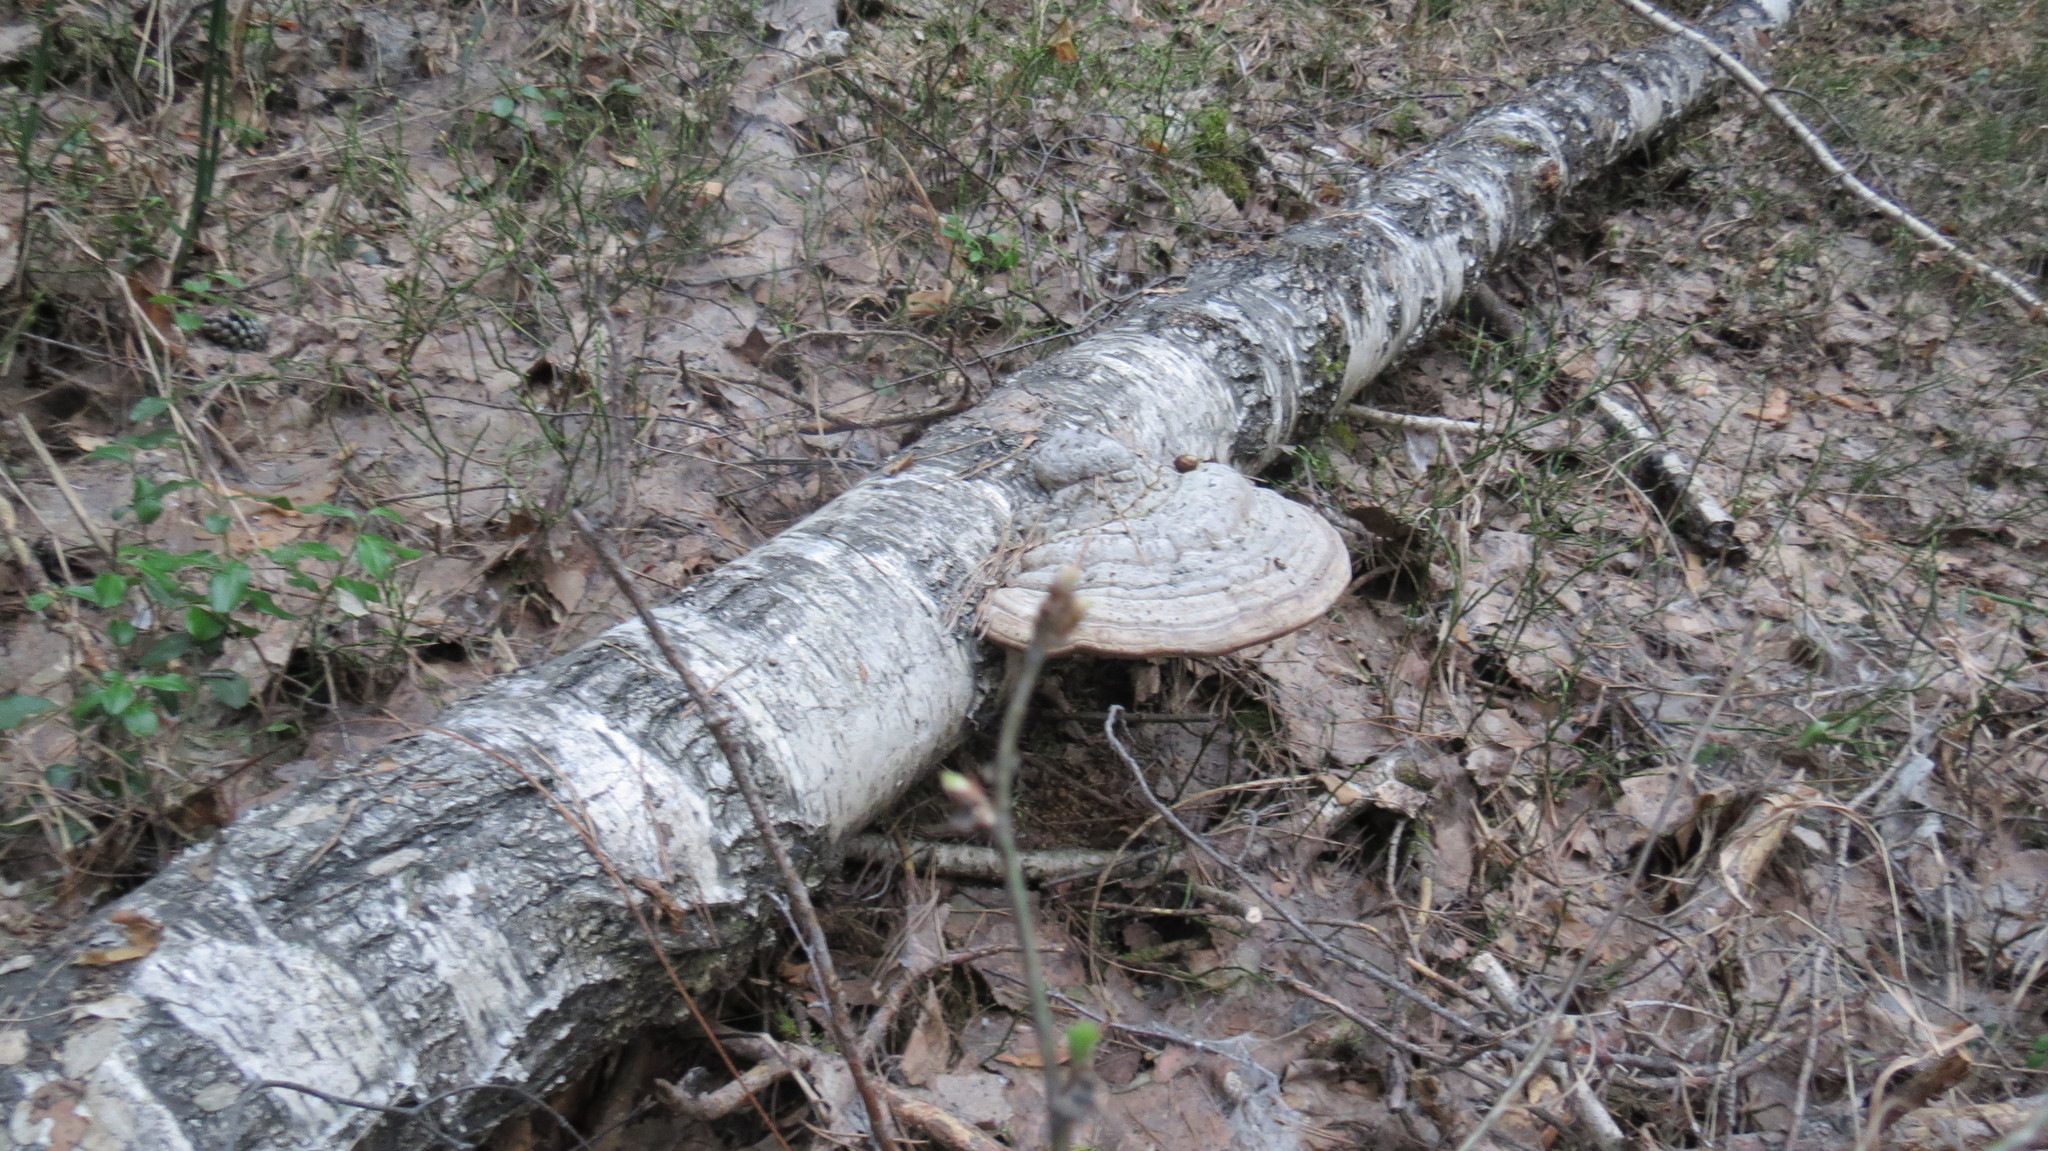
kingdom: Fungi
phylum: Basidiomycota
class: Agaricomycetes
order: Polyporales
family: Polyporaceae
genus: Fomes
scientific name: Fomes fomentarius
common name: Hoof fungus
